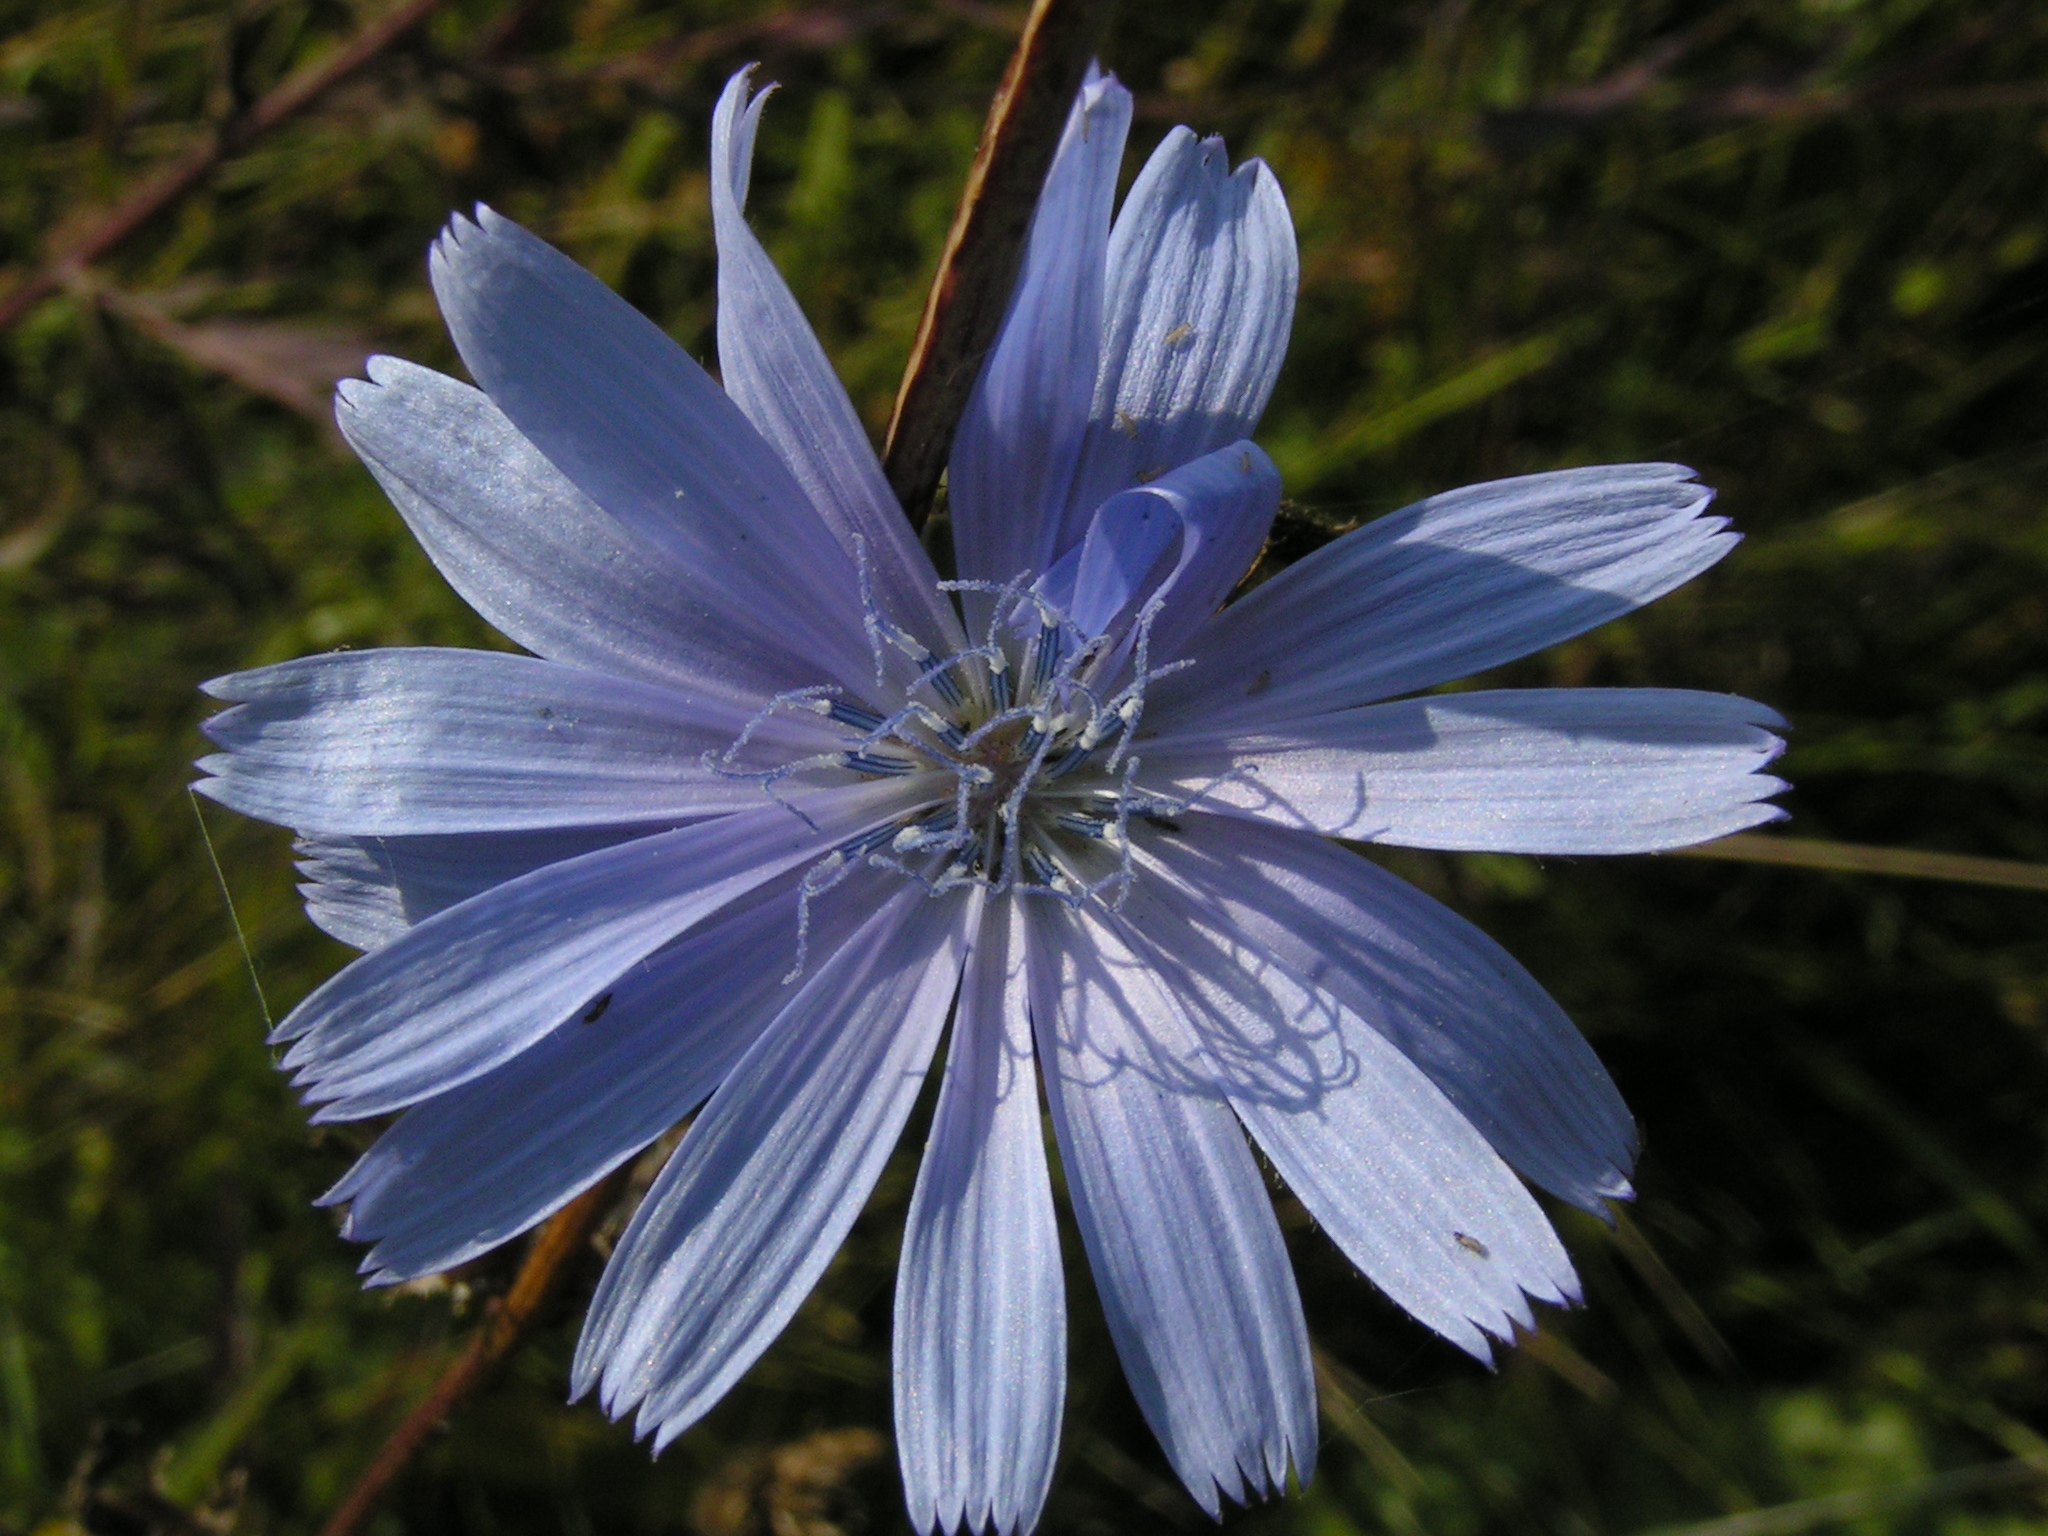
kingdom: Plantae
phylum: Tracheophyta
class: Magnoliopsida
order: Asterales
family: Asteraceae
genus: Cichorium
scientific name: Cichorium intybus
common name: Chicory
